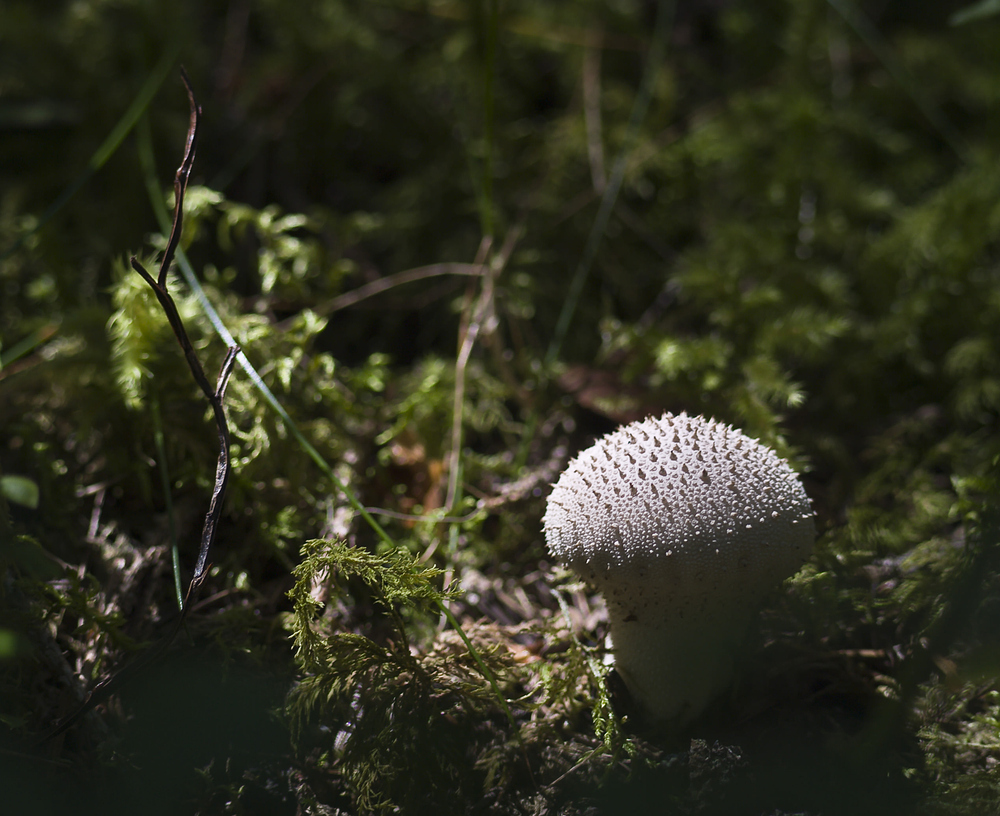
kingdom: Fungi
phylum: Basidiomycota
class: Agaricomycetes
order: Agaricales
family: Lycoperdaceae
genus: Lycoperdon
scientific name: Lycoperdon perlatum
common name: Common puffball
